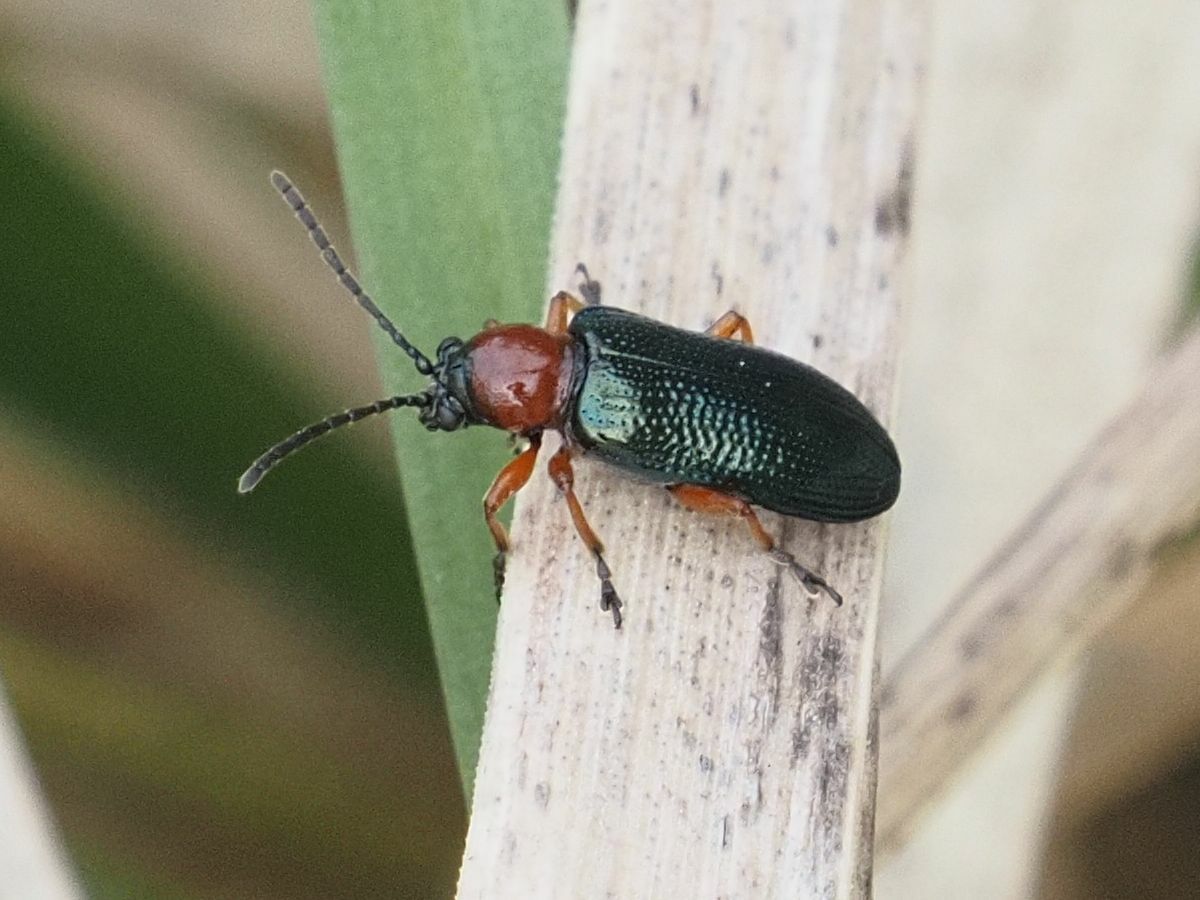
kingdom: Animalia
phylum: Arthropoda
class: Insecta
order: Coleoptera
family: Chrysomelidae
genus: Oulema
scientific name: Oulema
